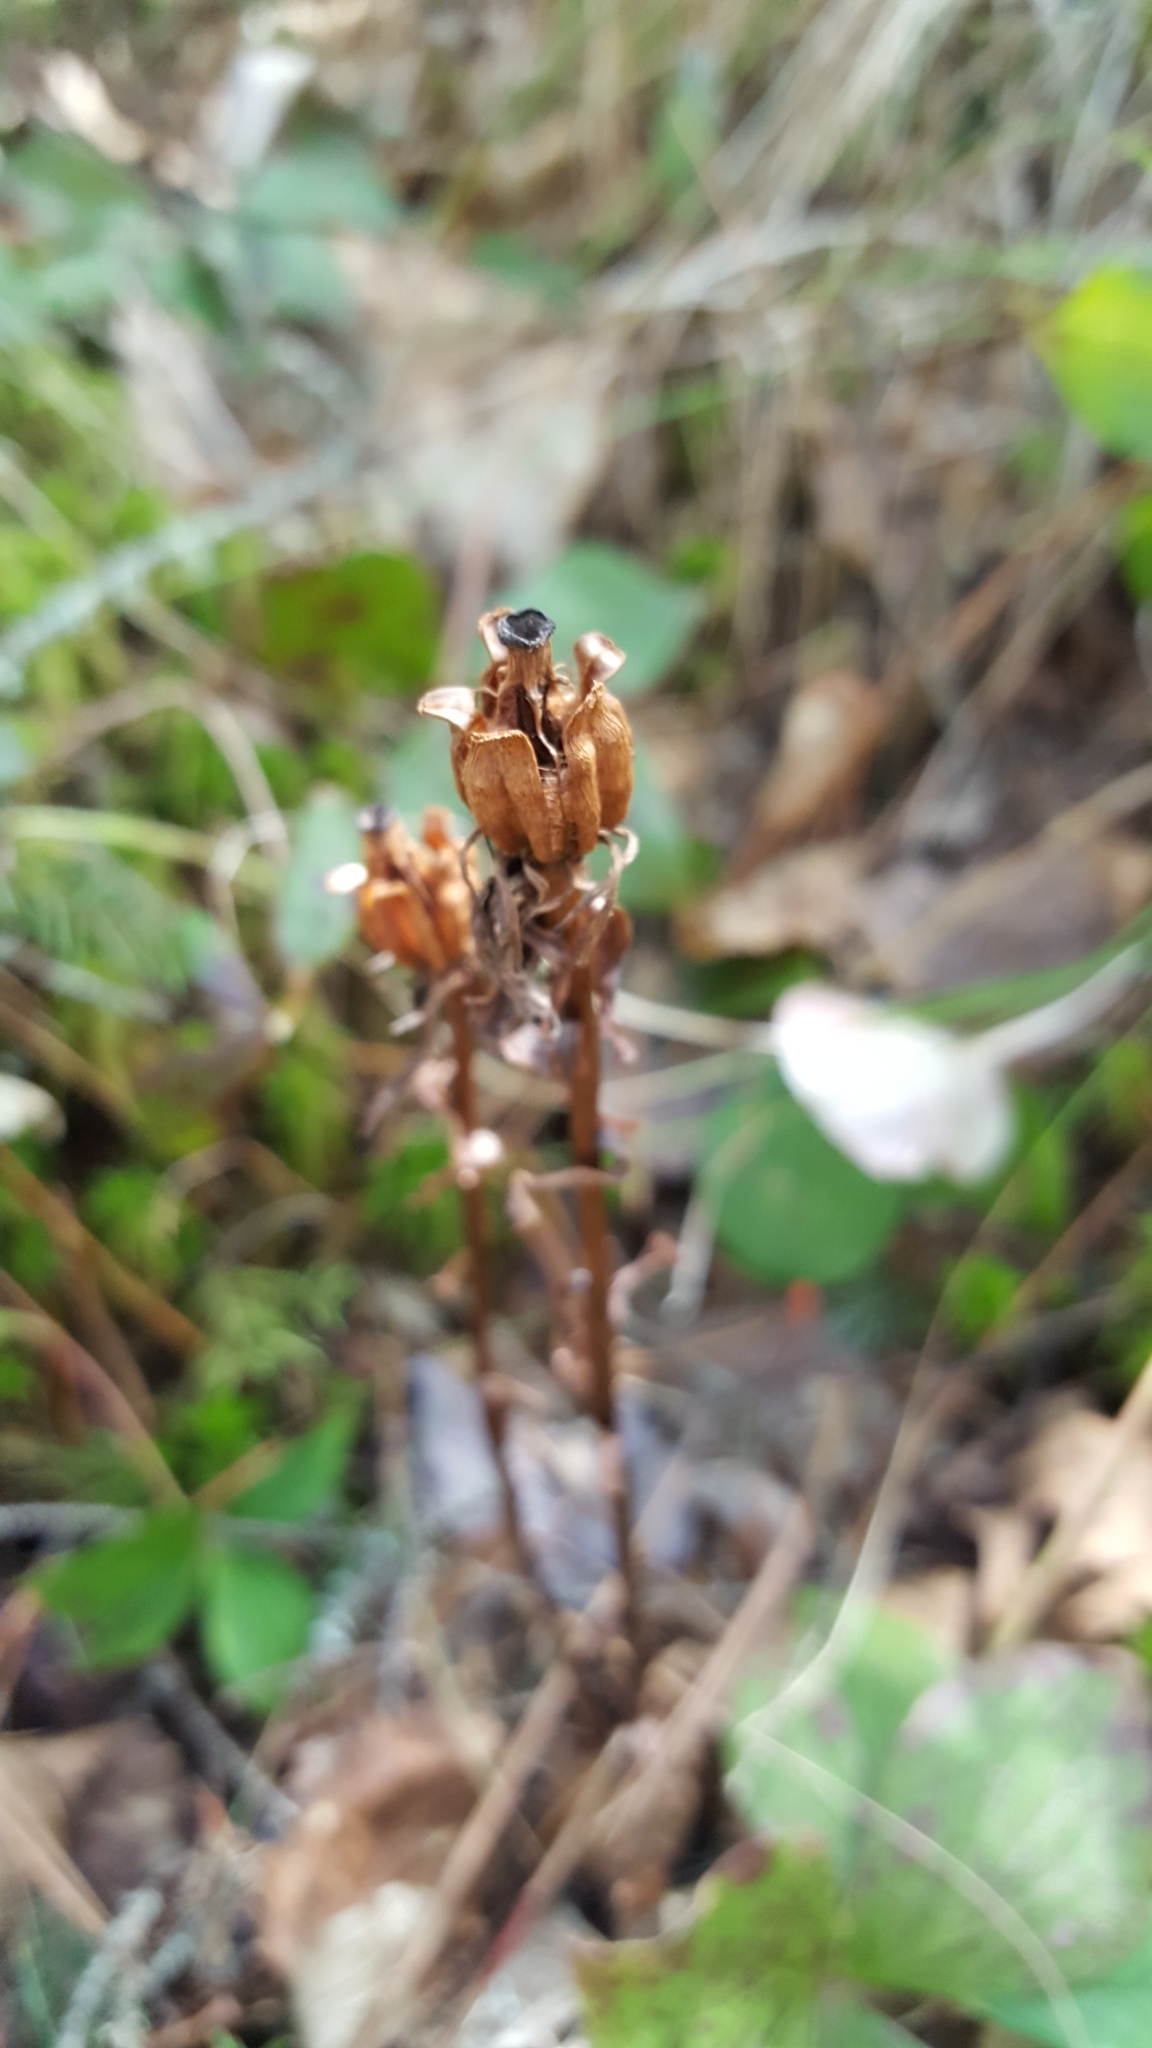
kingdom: Plantae
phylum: Tracheophyta
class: Magnoliopsida
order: Ericales
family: Ericaceae
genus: Monotropa
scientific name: Monotropa uniflora
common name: Convulsion root
